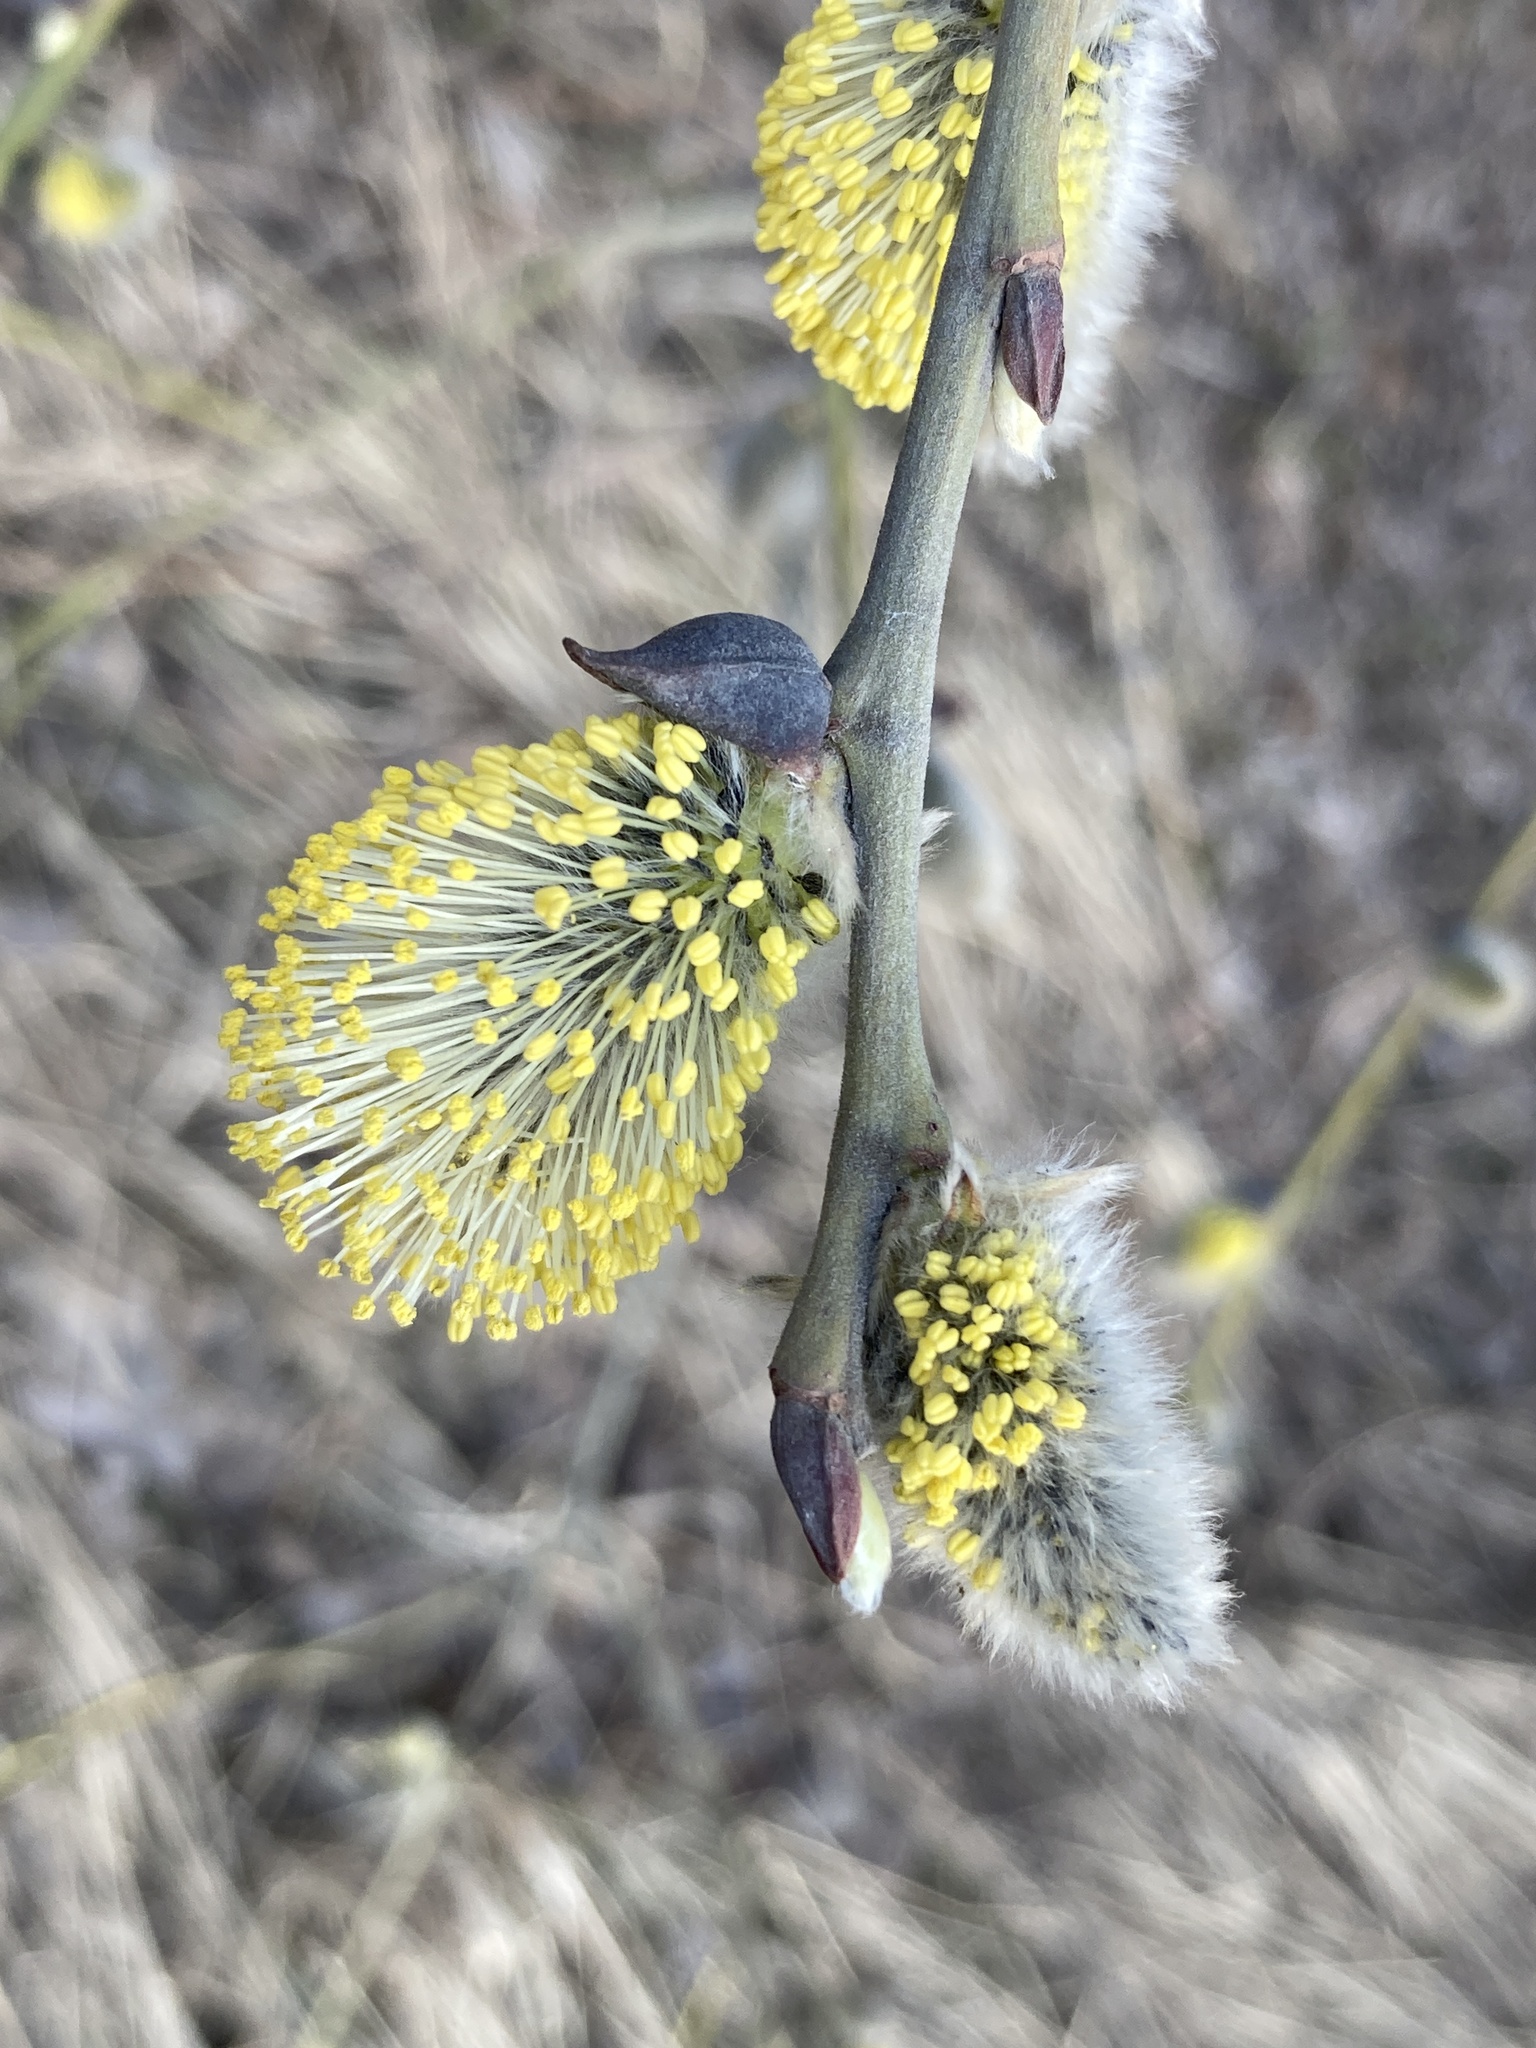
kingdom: Plantae
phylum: Tracheophyta
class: Magnoliopsida
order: Malpighiales
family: Salicaceae
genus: Salix
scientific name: Salix caprea
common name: Goat willow
